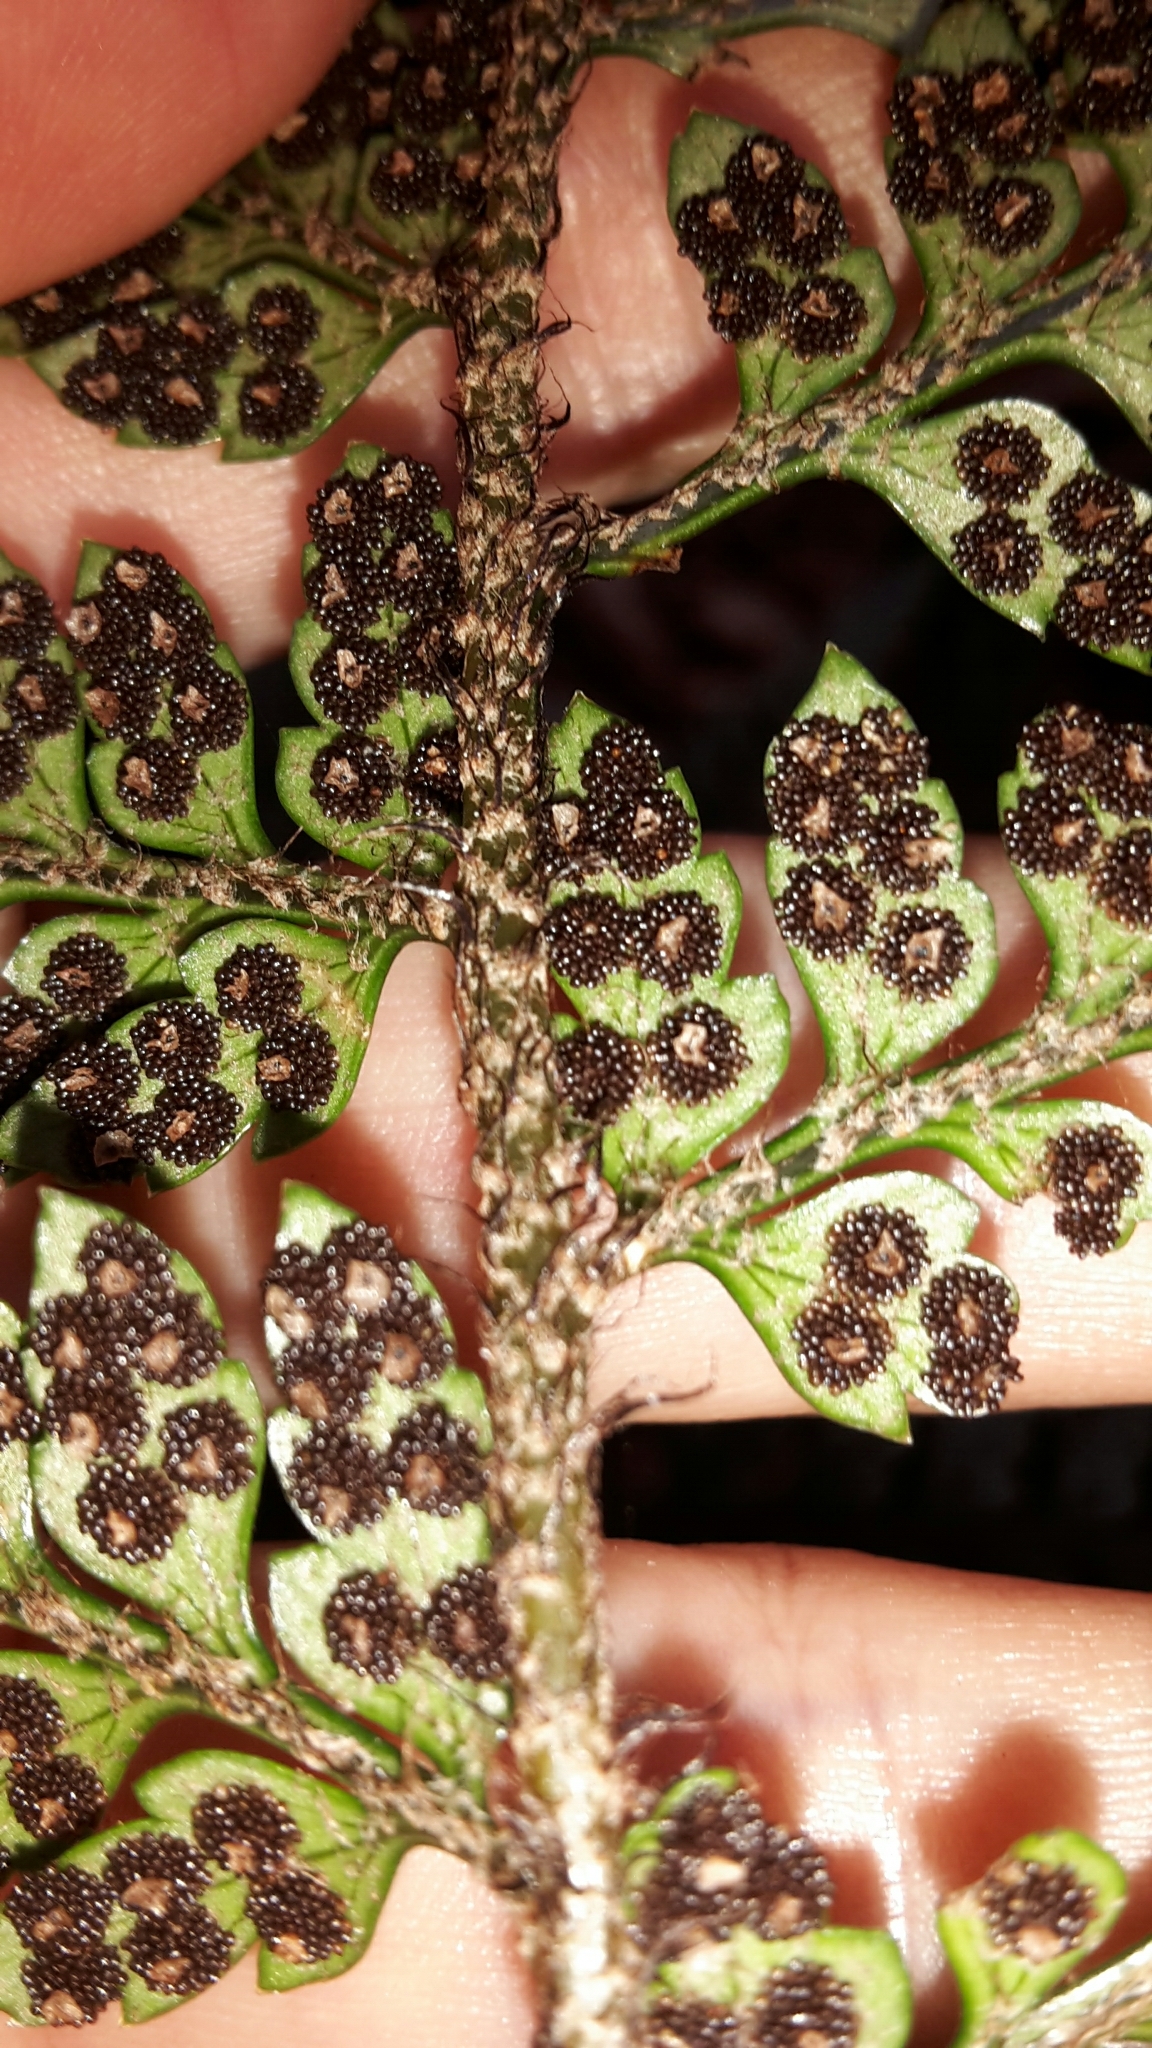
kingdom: Plantae
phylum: Tracheophyta
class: Polypodiopsida
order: Polypodiales
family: Dryopteridaceae
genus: Polystichum
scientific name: Polystichum neozelandicum
